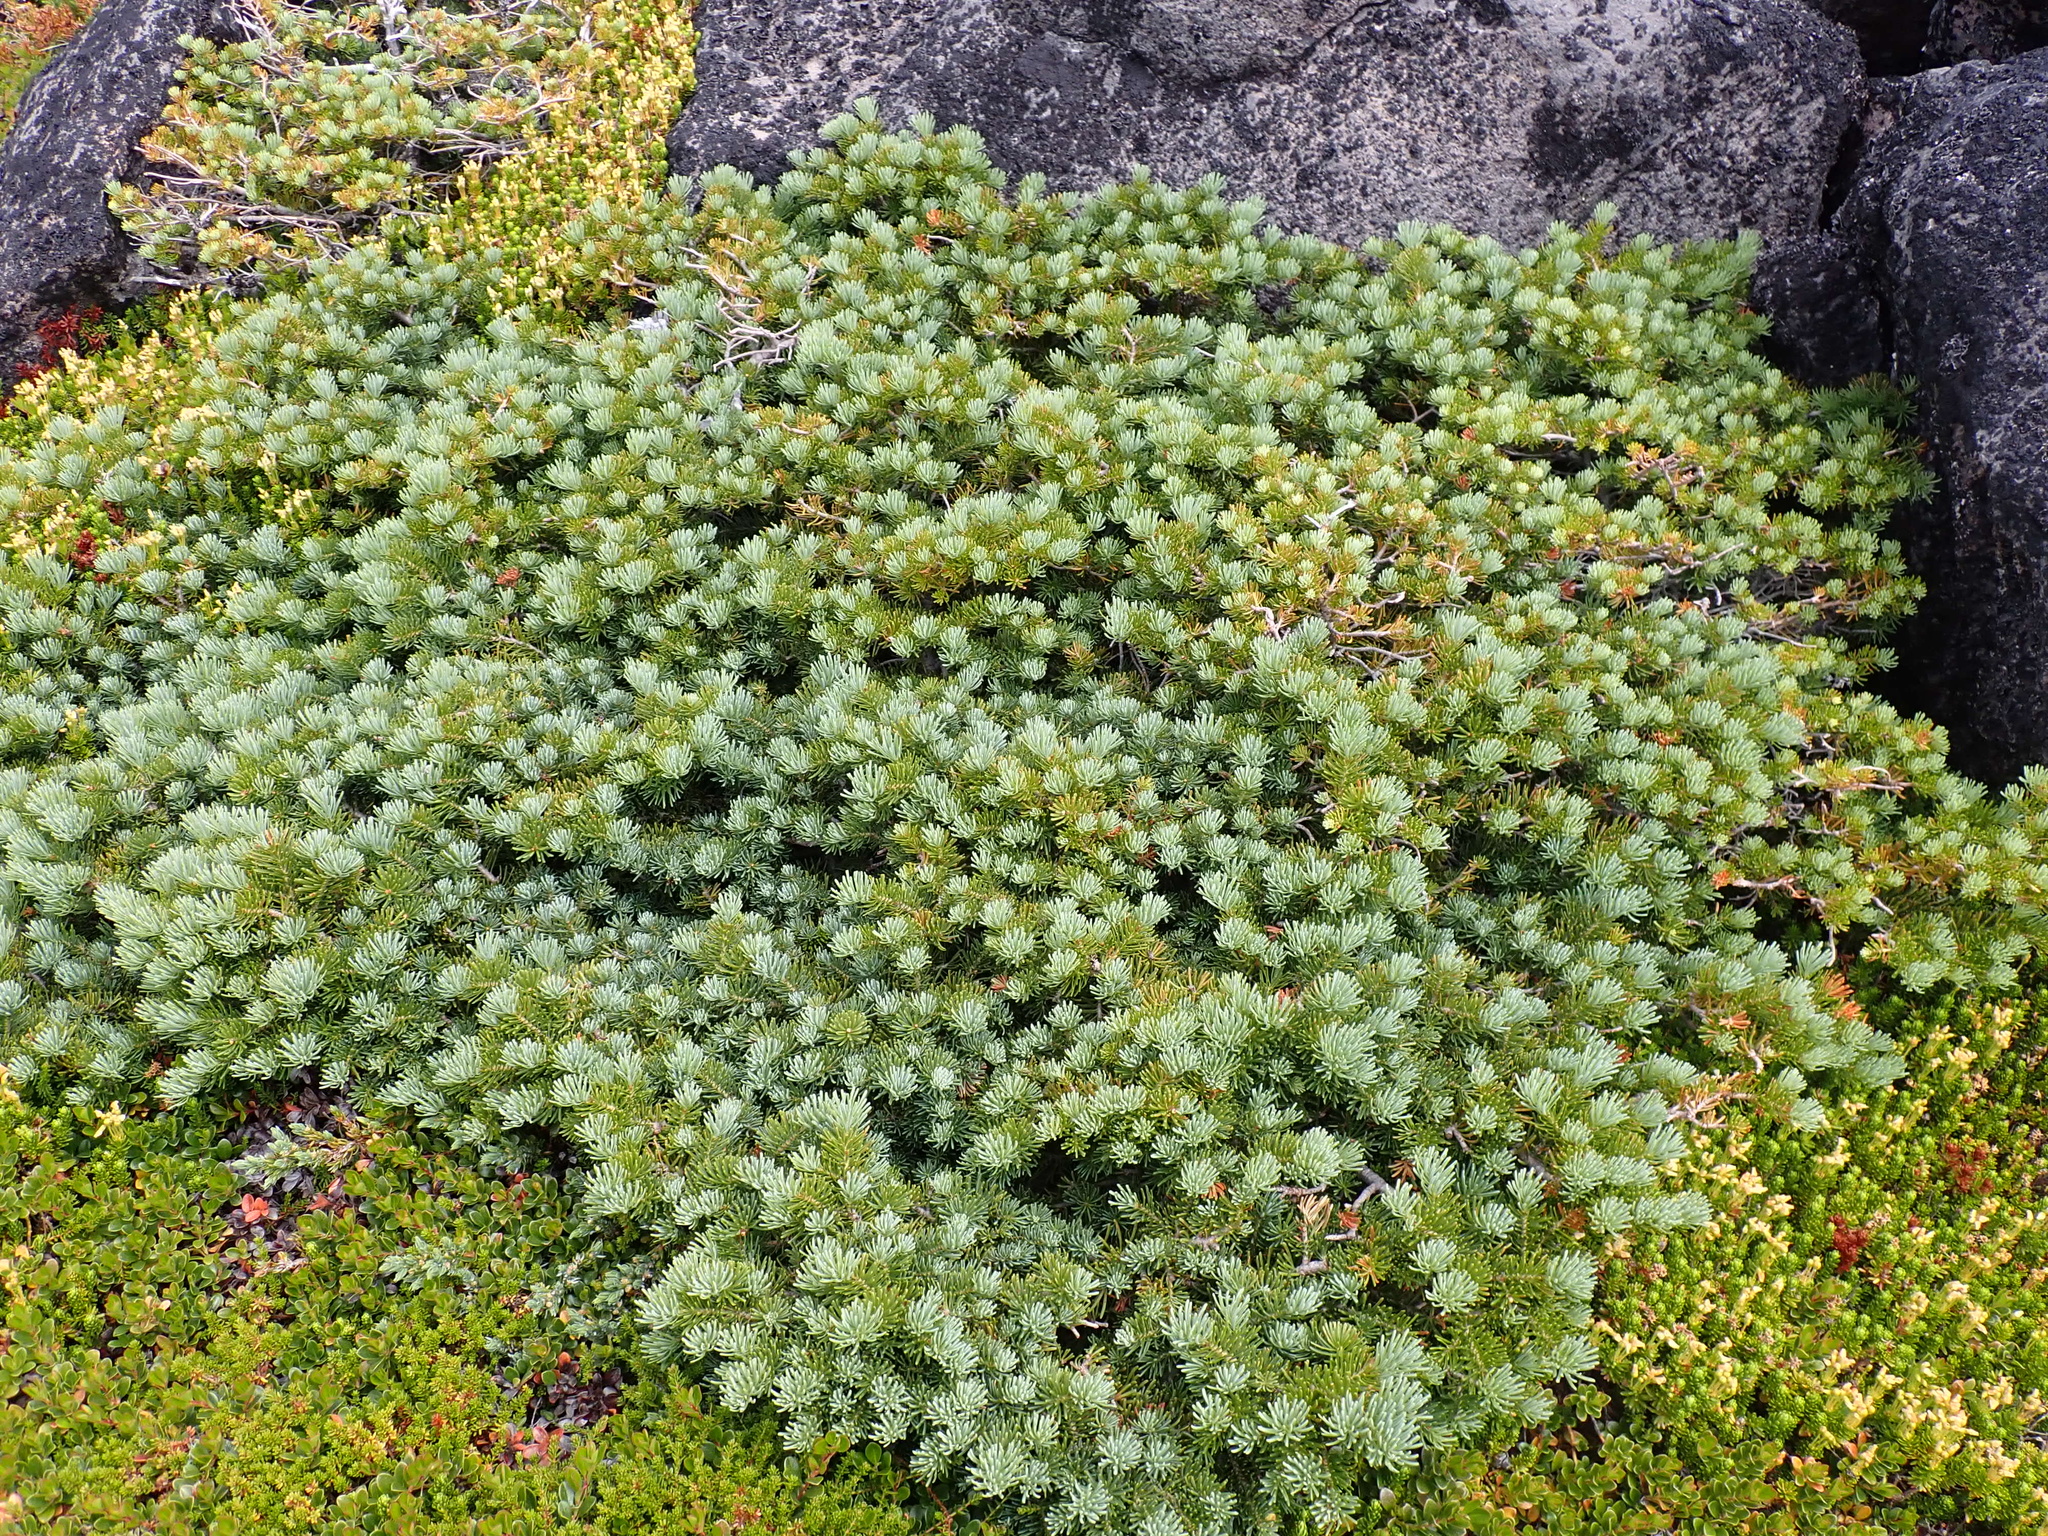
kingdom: Plantae
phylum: Tracheophyta
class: Pinopsida
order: Pinales
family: Pinaceae
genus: Abies
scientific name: Abies lasiocarpa
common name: Subalpine fir
